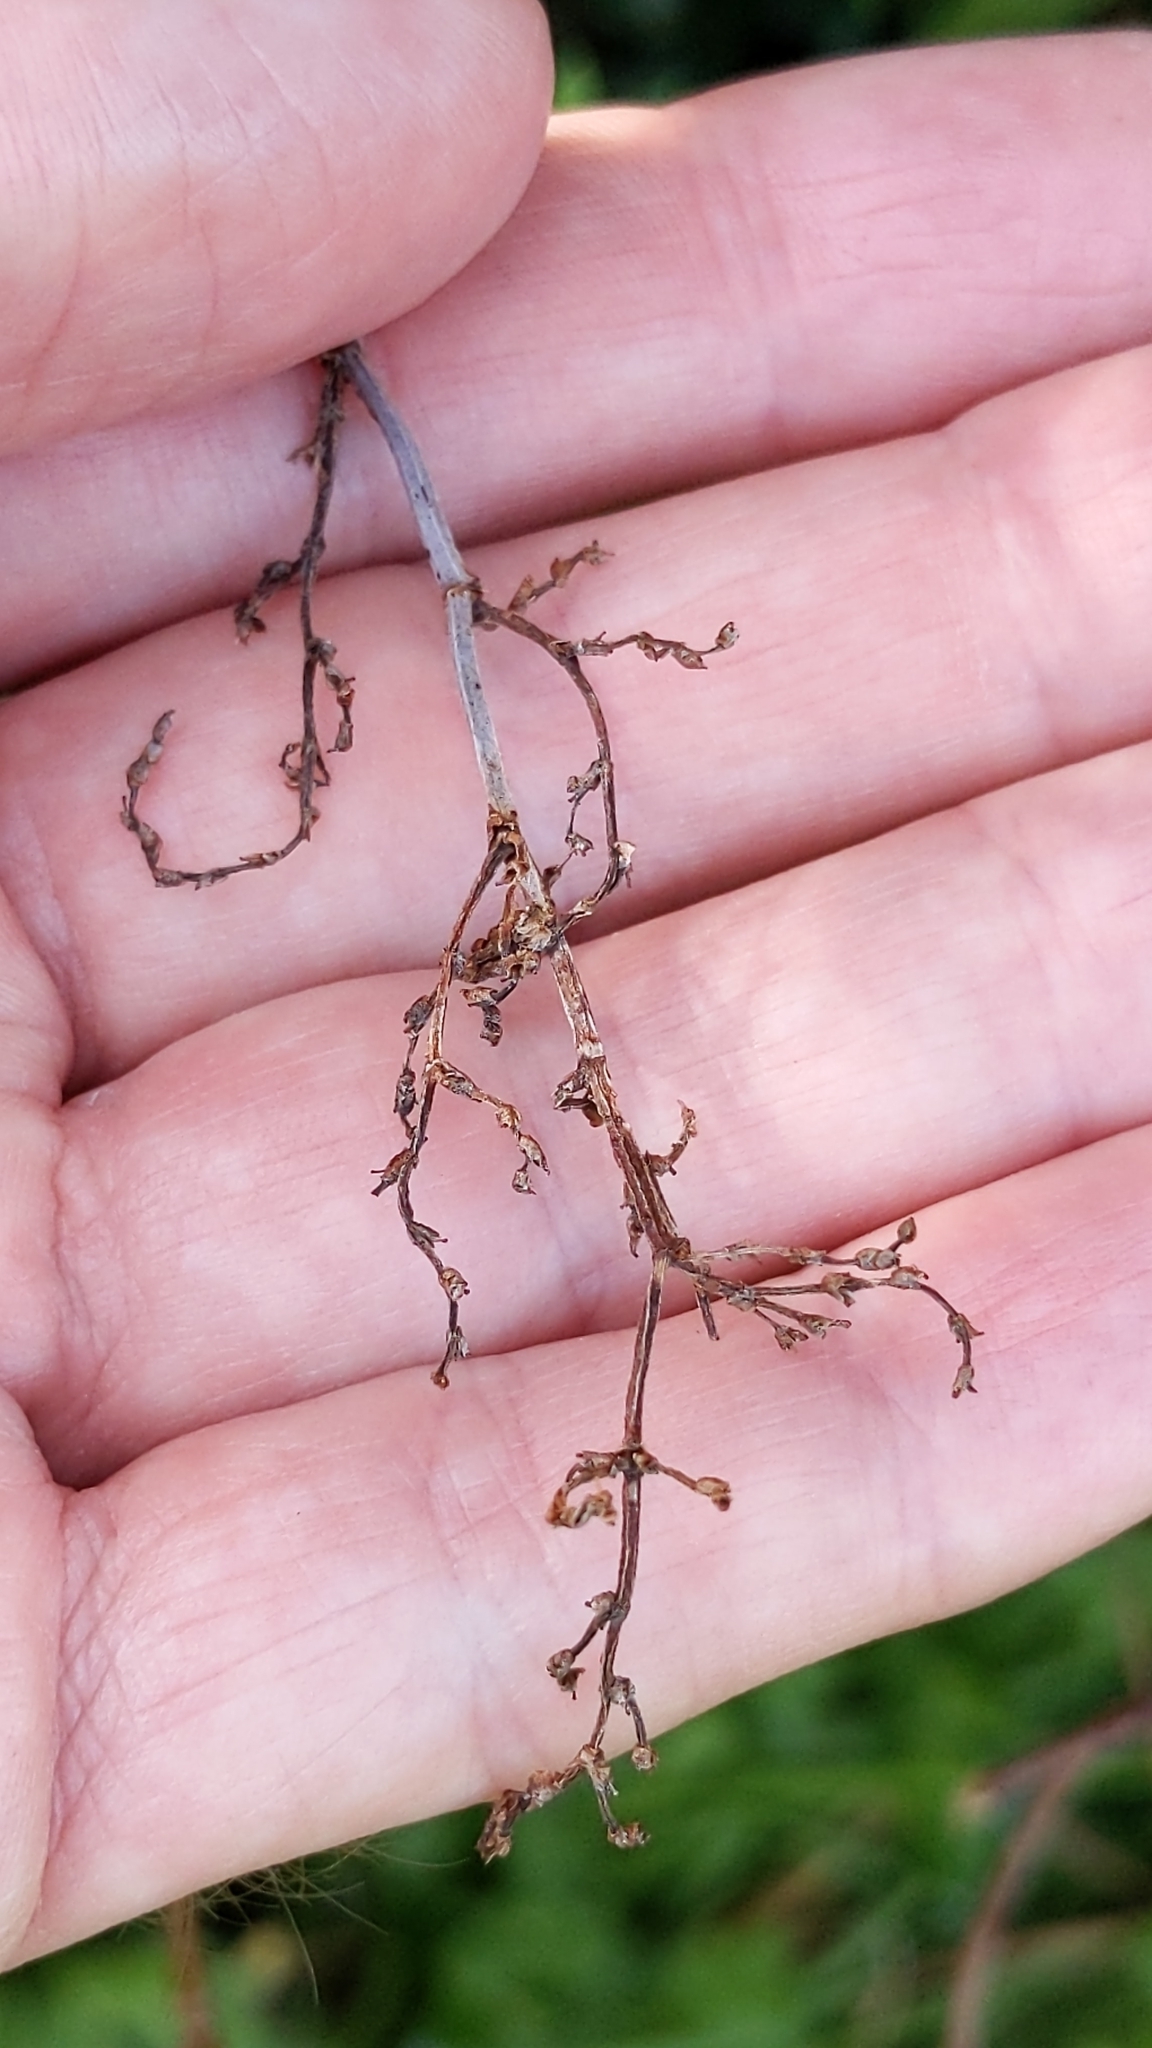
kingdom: Plantae
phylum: Tracheophyta
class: Magnoliopsida
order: Caryophyllales
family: Polygonaceae
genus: Muehlenbeckia
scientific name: Muehlenbeckia australis
